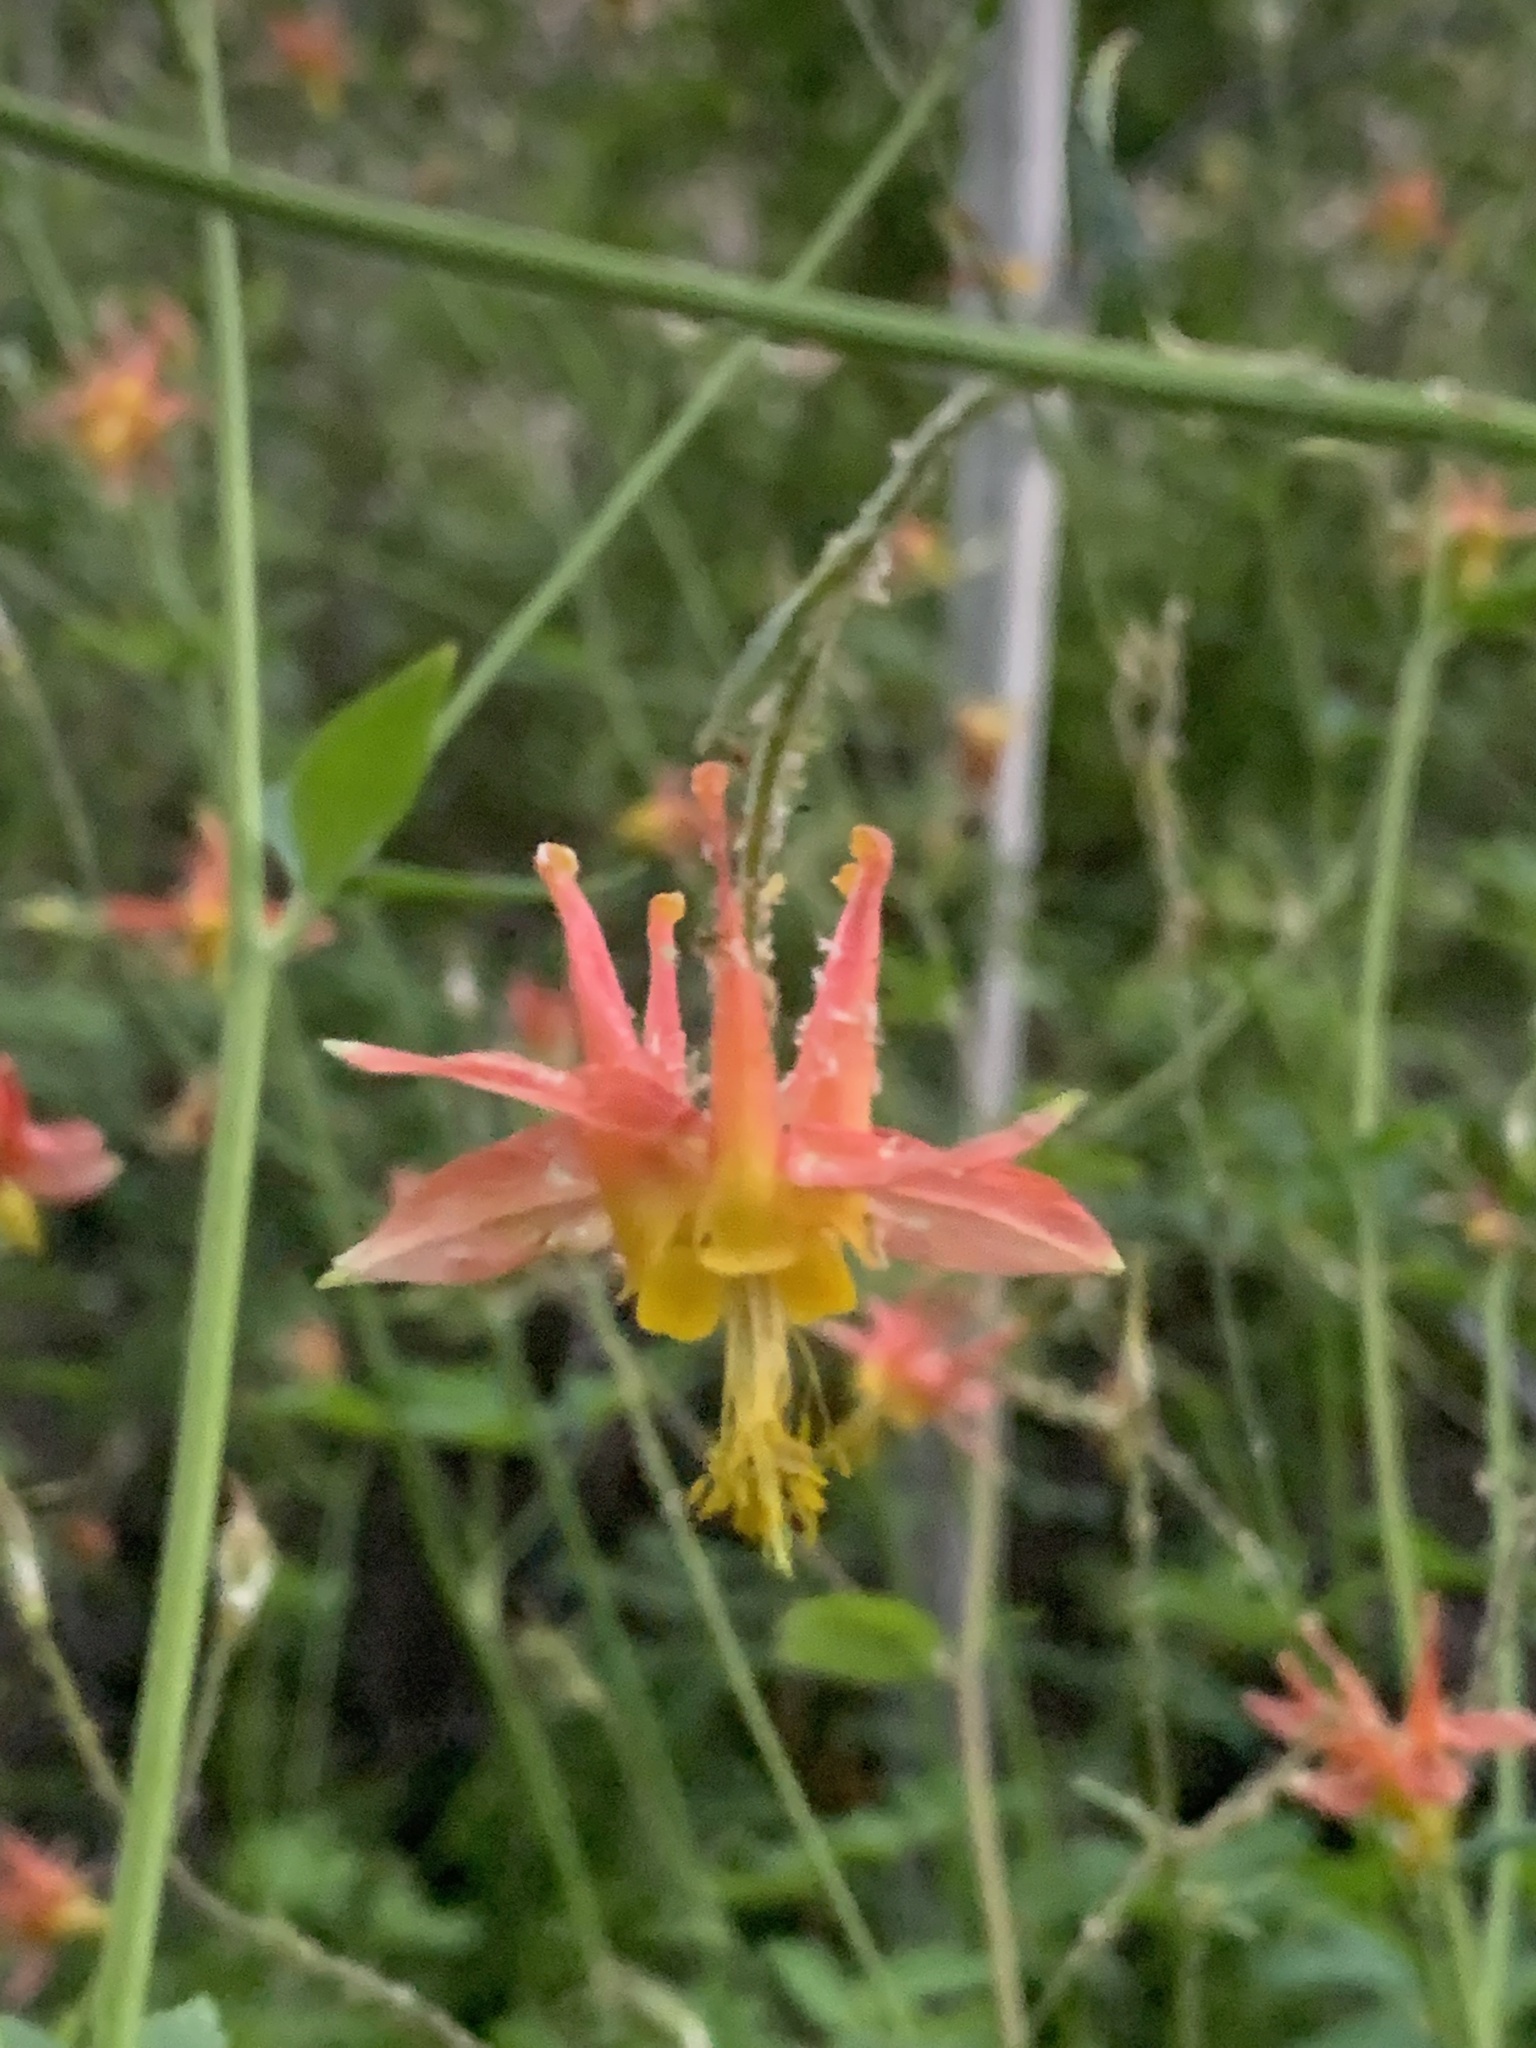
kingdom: Plantae
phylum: Tracheophyta
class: Magnoliopsida
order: Ranunculales
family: Ranunculaceae
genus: Aquilegia
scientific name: Aquilegia formosa
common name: Sitka columbine
